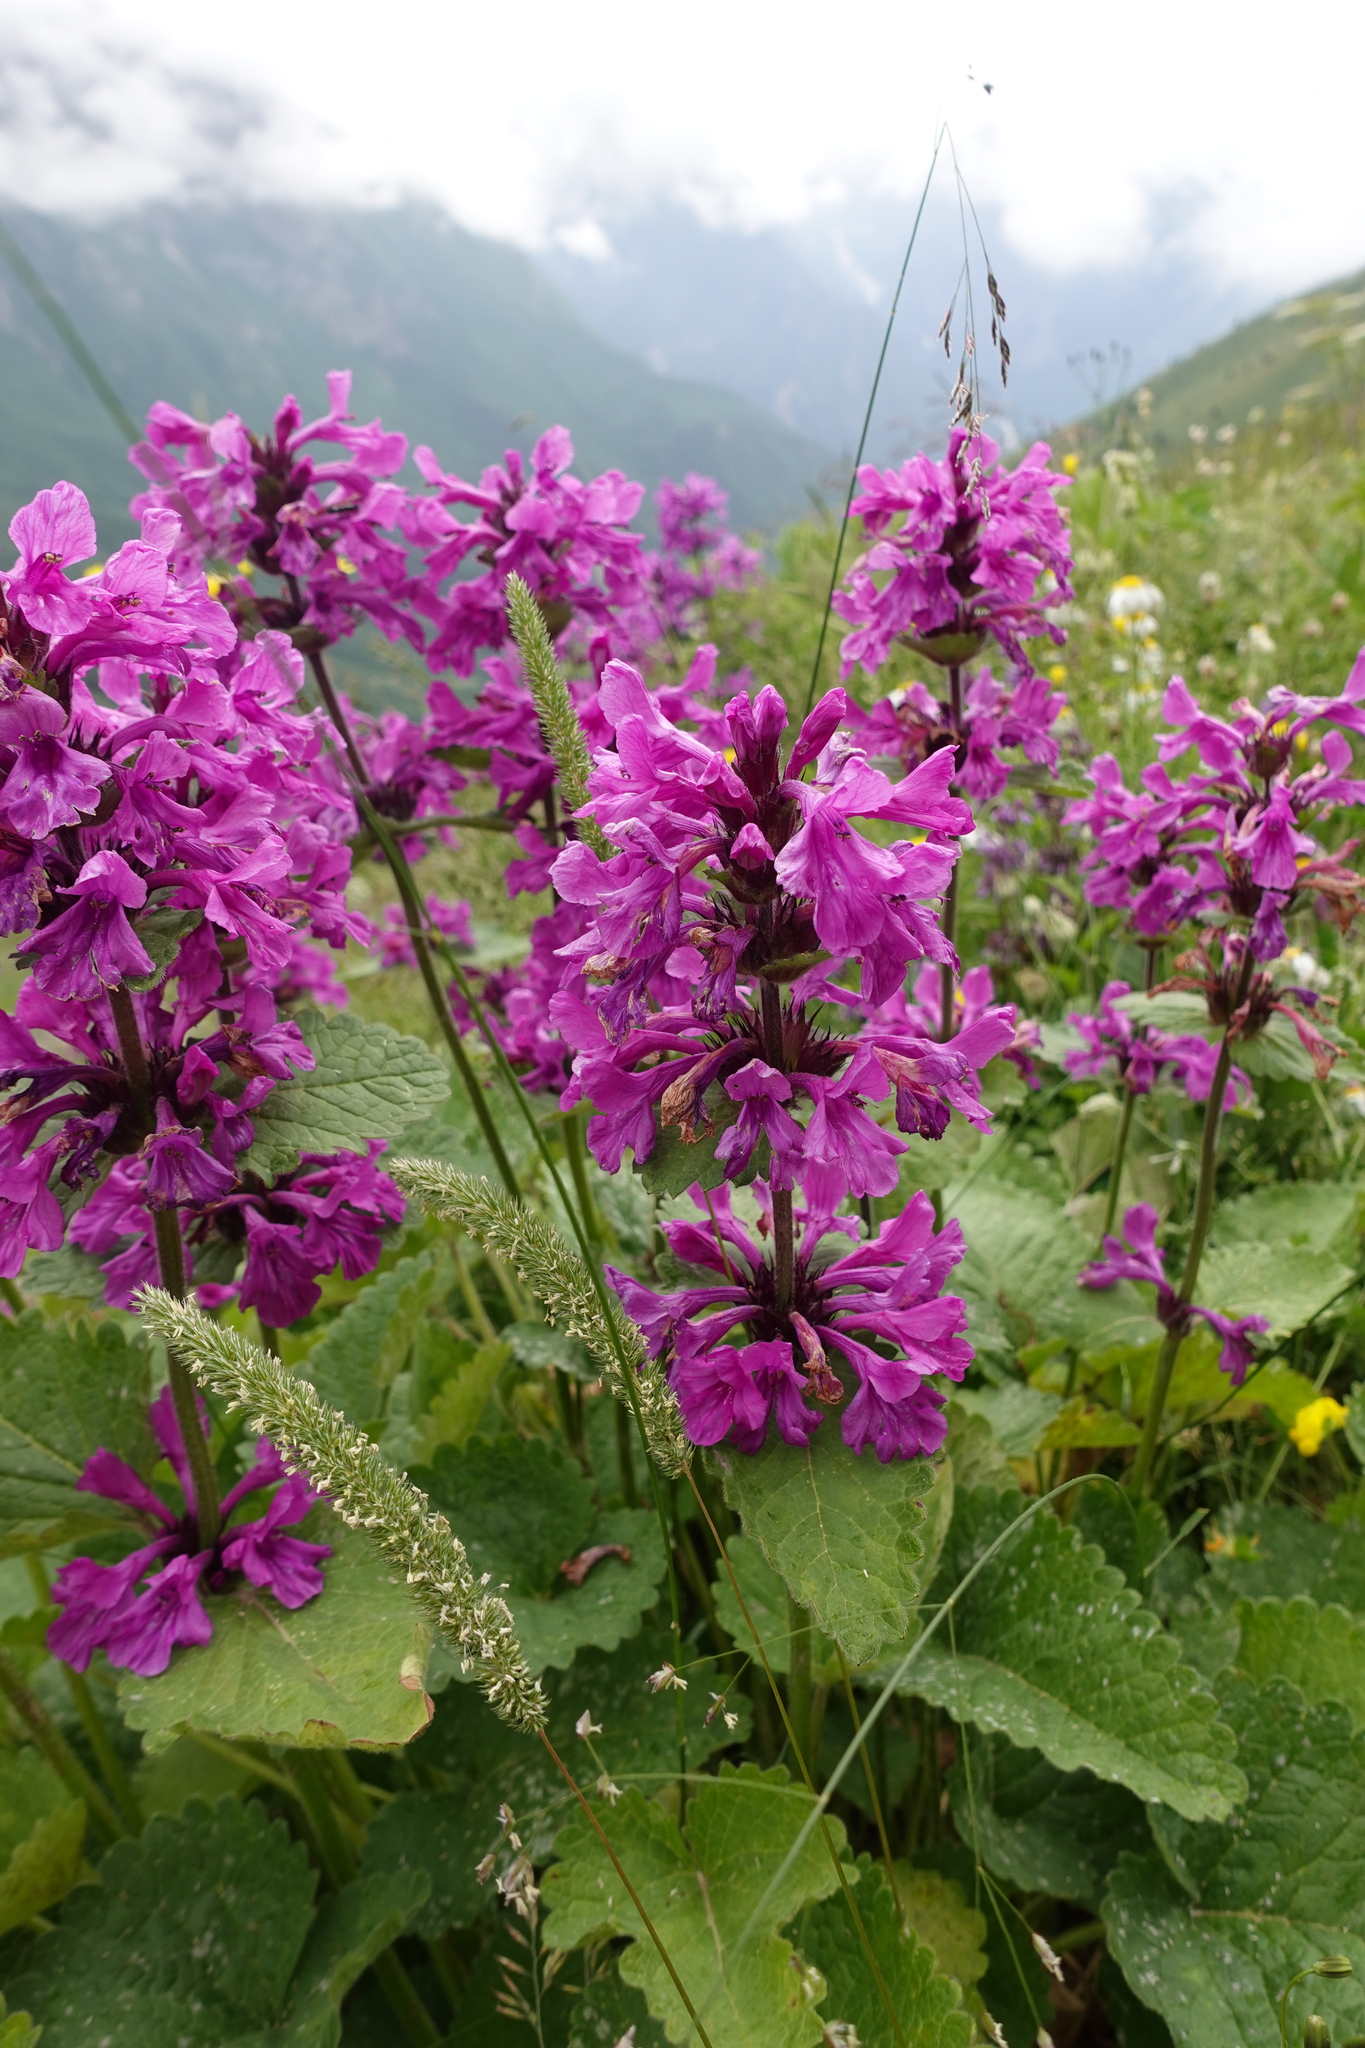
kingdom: Plantae
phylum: Tracheophyta
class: Magnoliopsida
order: Lamiales
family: Lamiaceae
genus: Betonica
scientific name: Betonica macrantha
